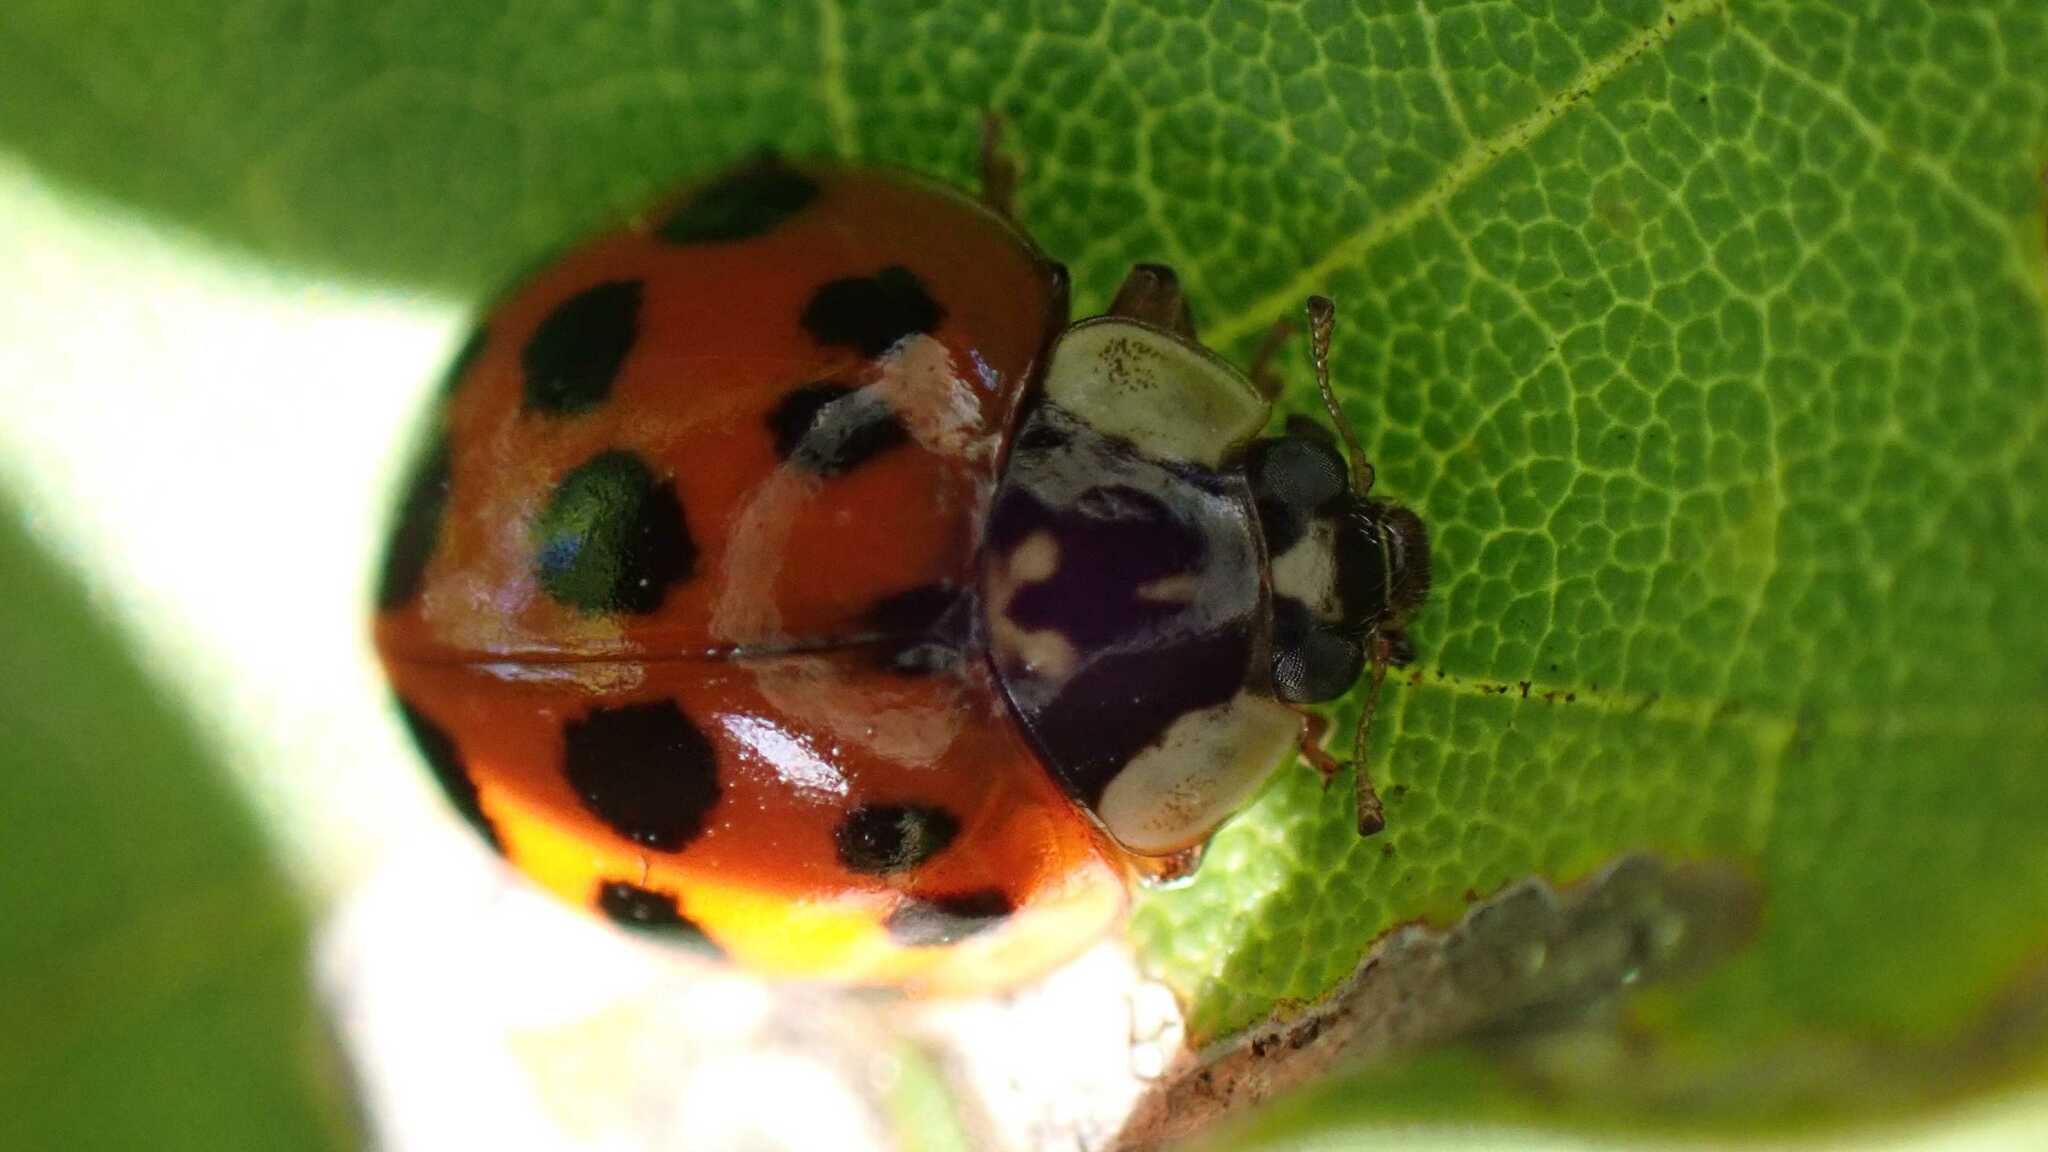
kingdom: Animalia
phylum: Arthropoda
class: Insecta
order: Coleoptera
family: Coccinellidae
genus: Harmonia
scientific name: Harmonia axyridis
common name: Harlequin ladybird
